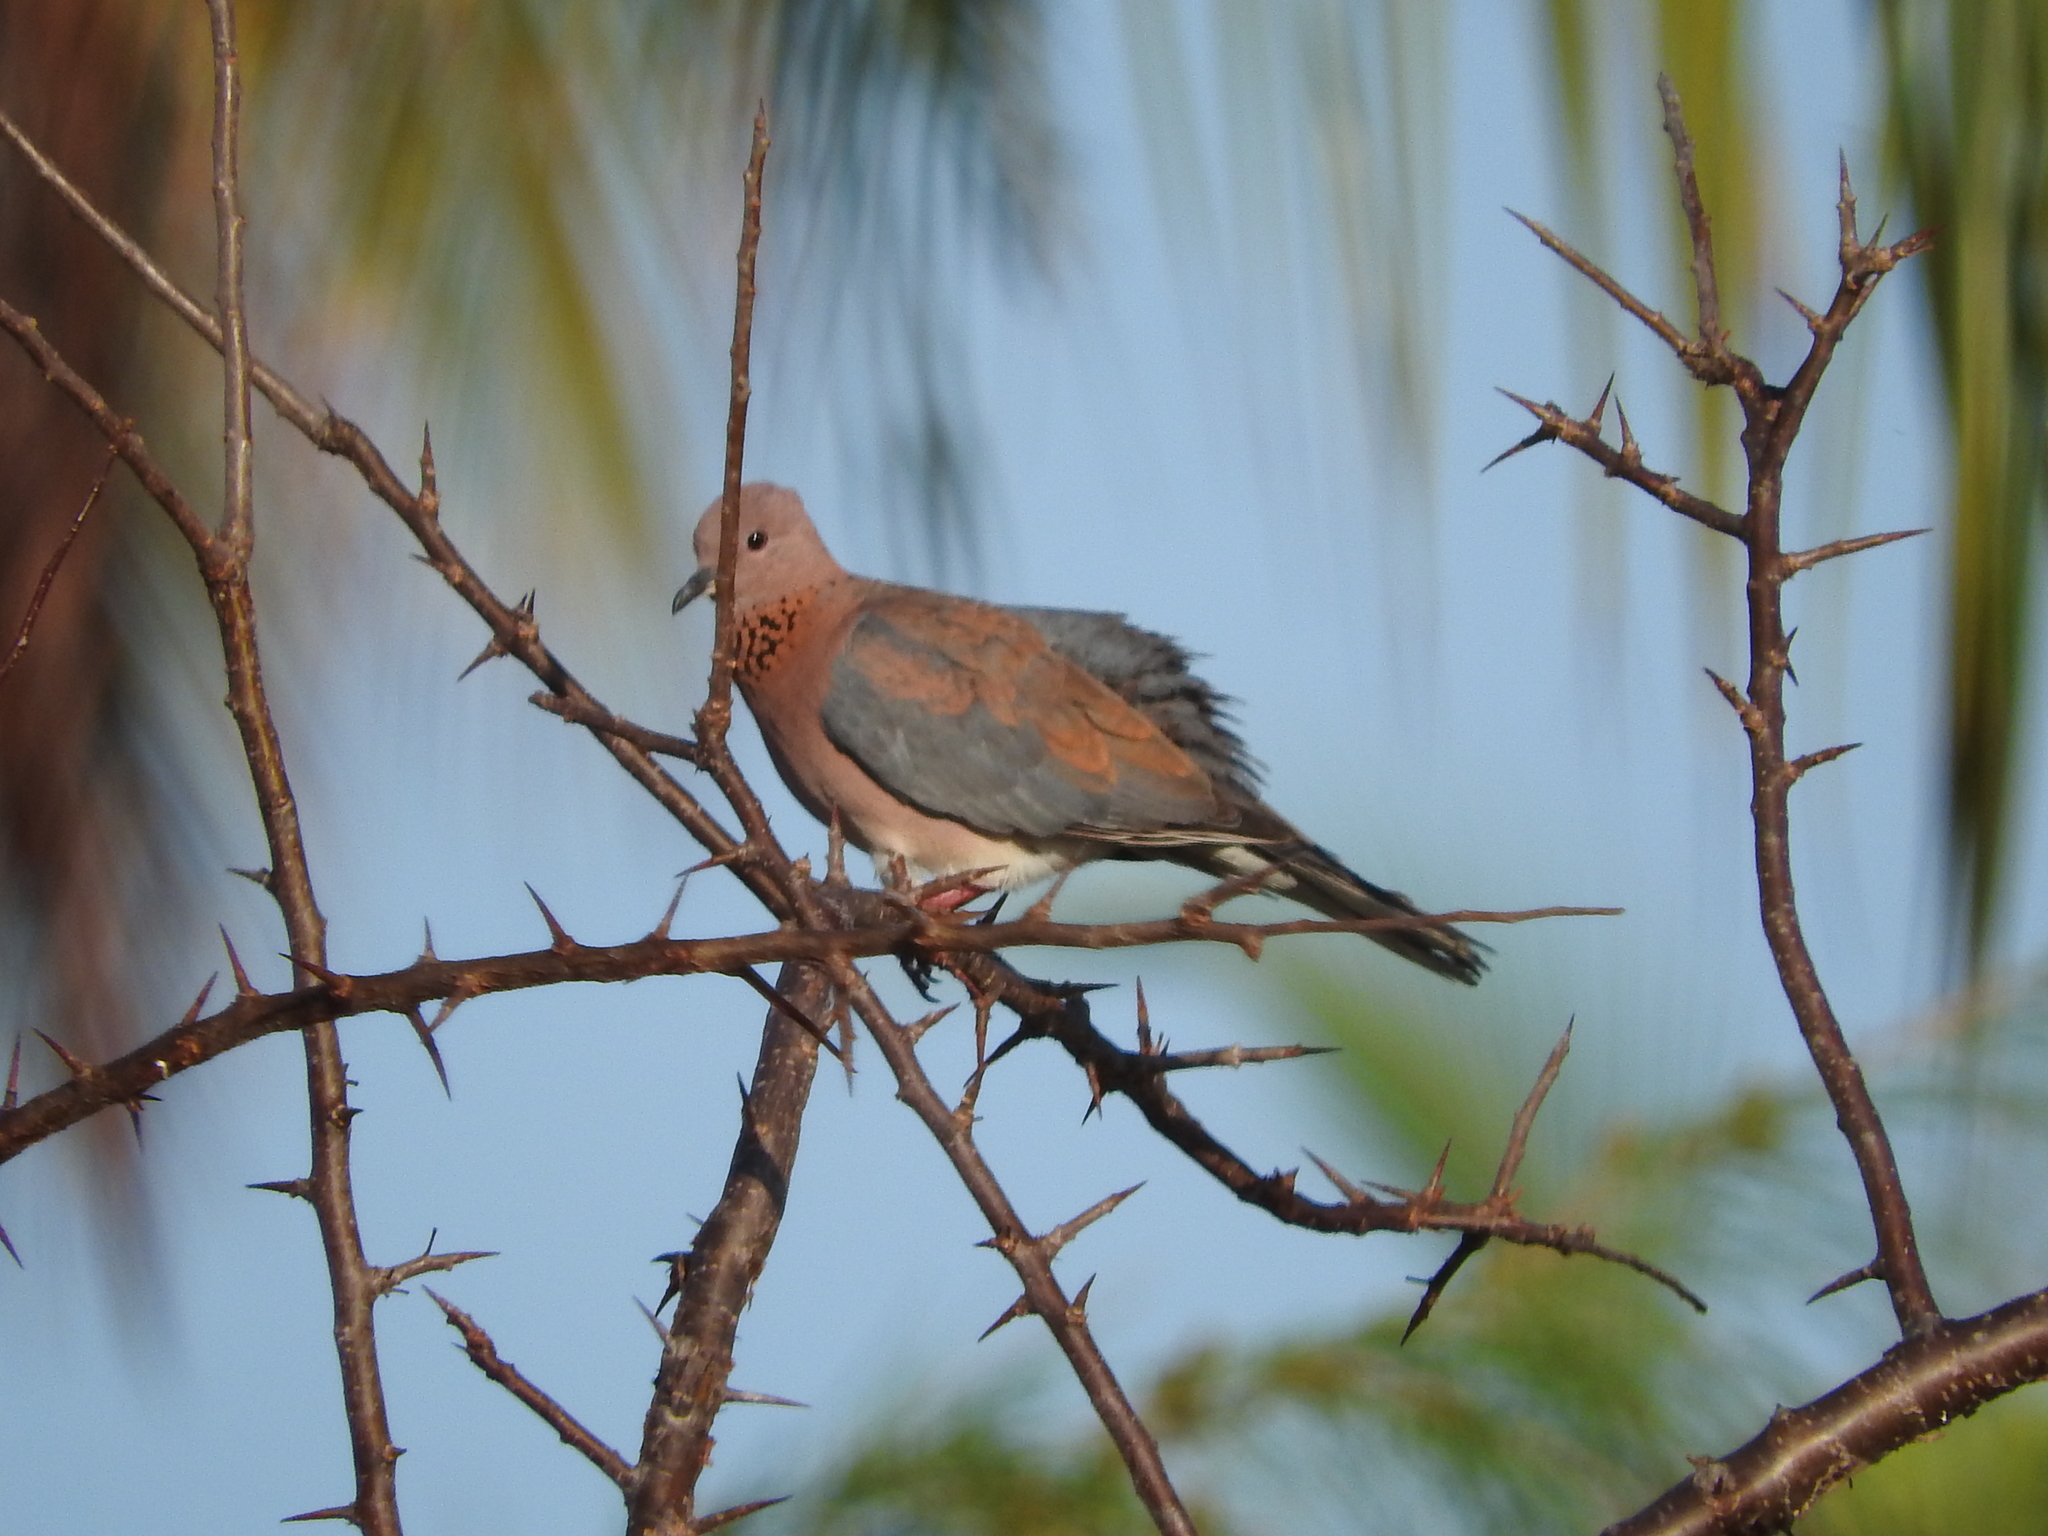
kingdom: Animalia
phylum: Chordata
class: Aves
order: Columbiformes
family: Columbidae
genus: Spilopelia
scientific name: Spilopelia senegalensis
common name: Laughing dove
